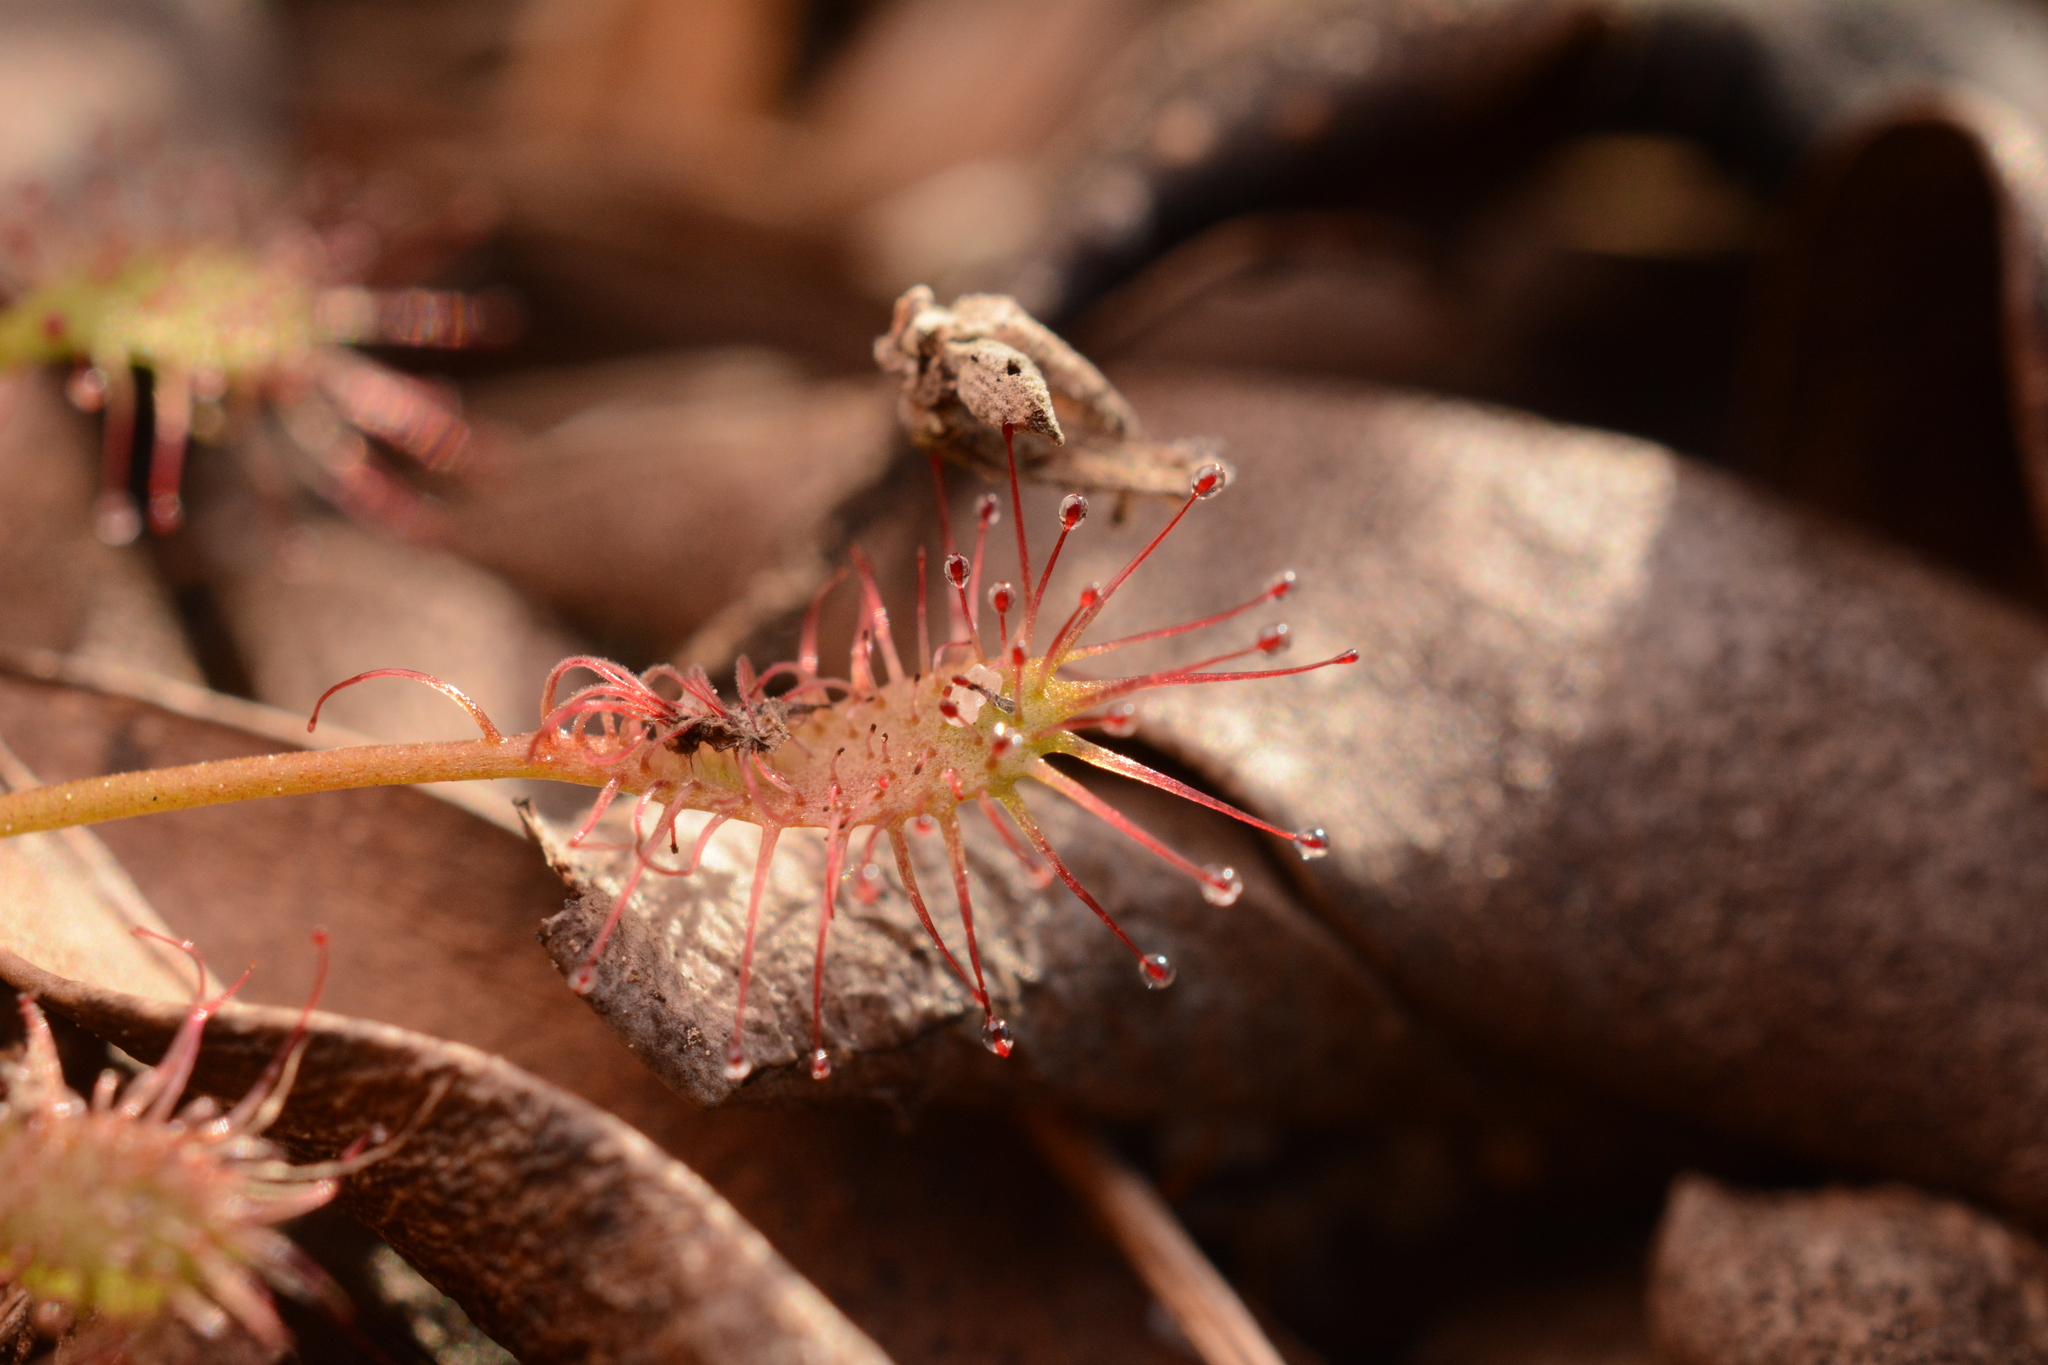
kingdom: Plantae
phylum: Tracheophyta
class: Magnoliopsida
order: Caryophyllales
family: Droseraceae
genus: Drosera
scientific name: Drosera intermedia
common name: Oblong-leaved sundew
